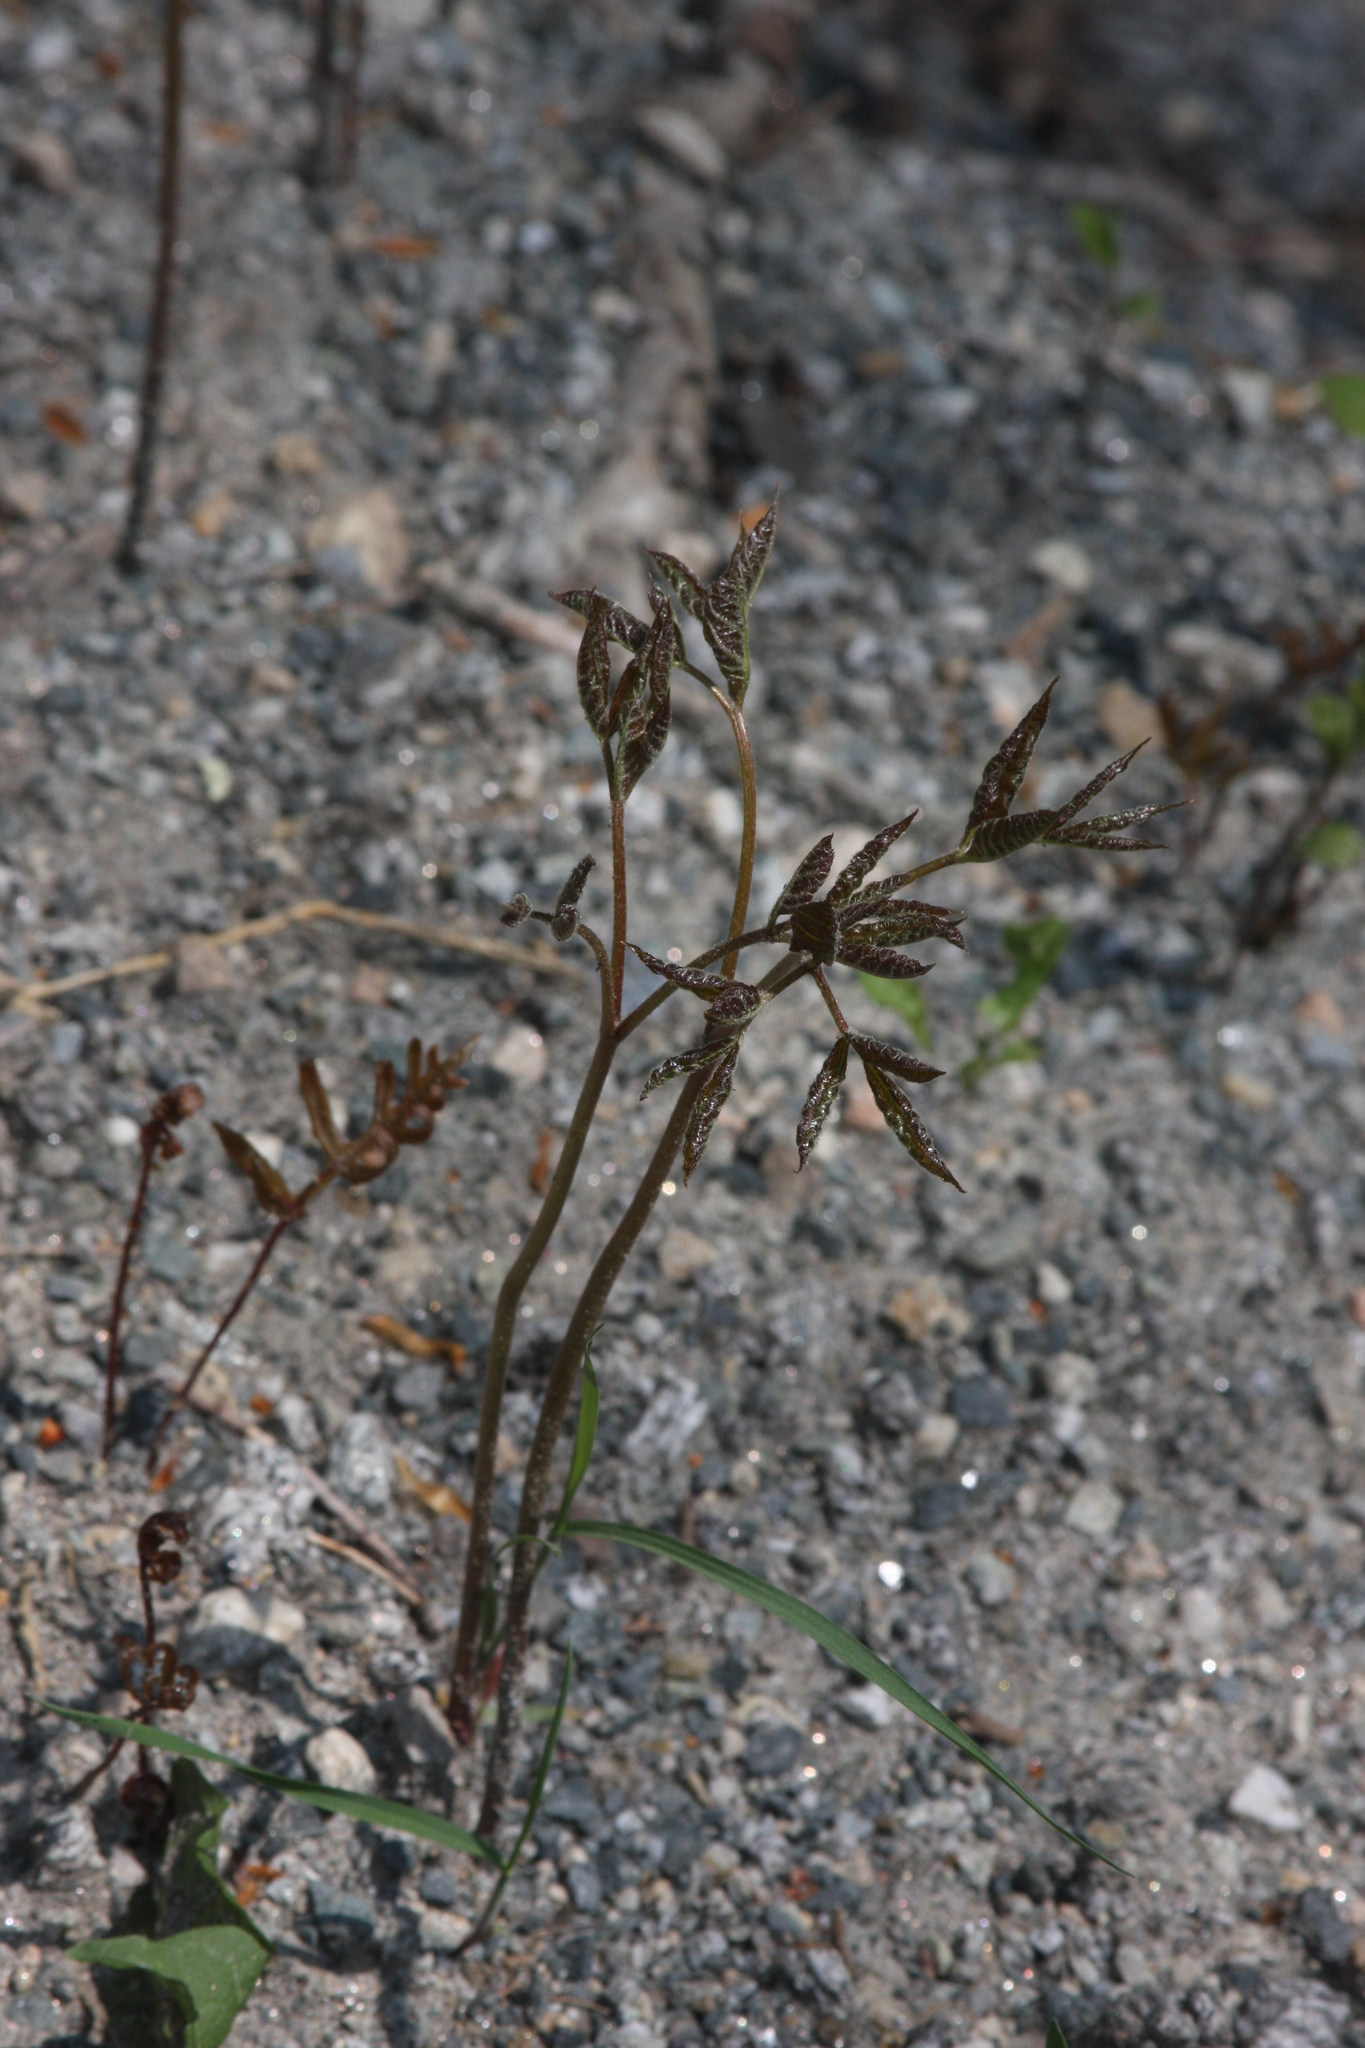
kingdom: Plantae
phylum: Tracheophyta
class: Magnoliopsida
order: Apiales
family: Araliaceae
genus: Aralia
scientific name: Aralia nudicaulis
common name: Wild sarsaparilla
